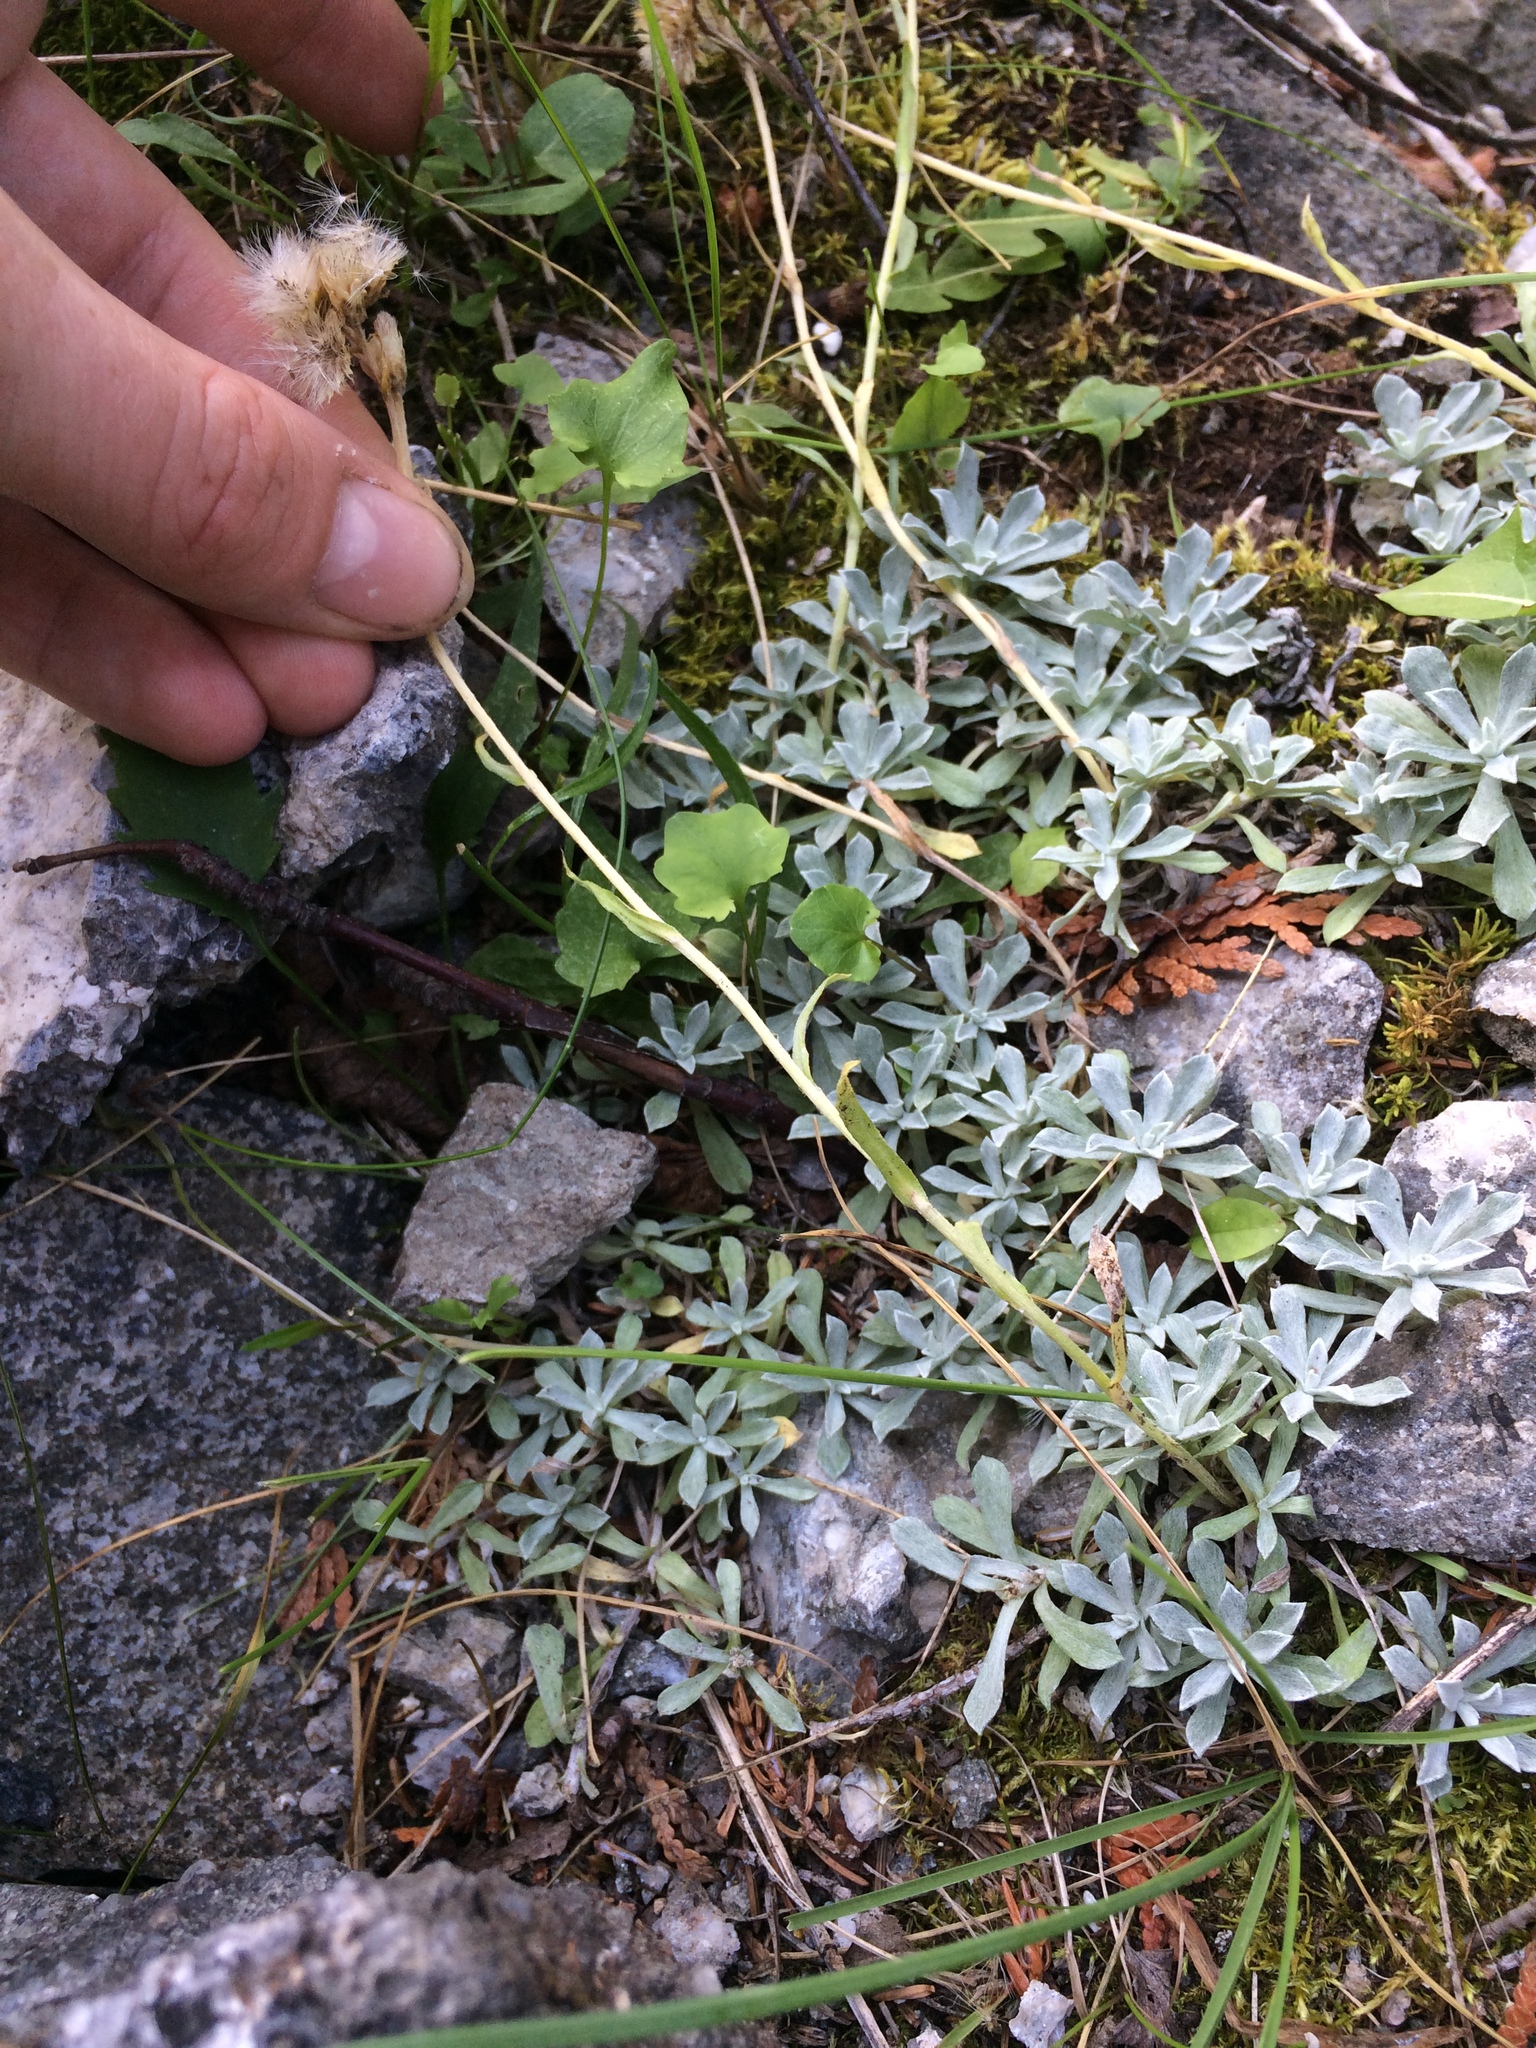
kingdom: Plantae
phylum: Tracheophyta
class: Magnoliopsida
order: Asterales
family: Asteraceae
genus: Antennaria
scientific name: Antennaria rosea
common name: Rosy pussytoes
